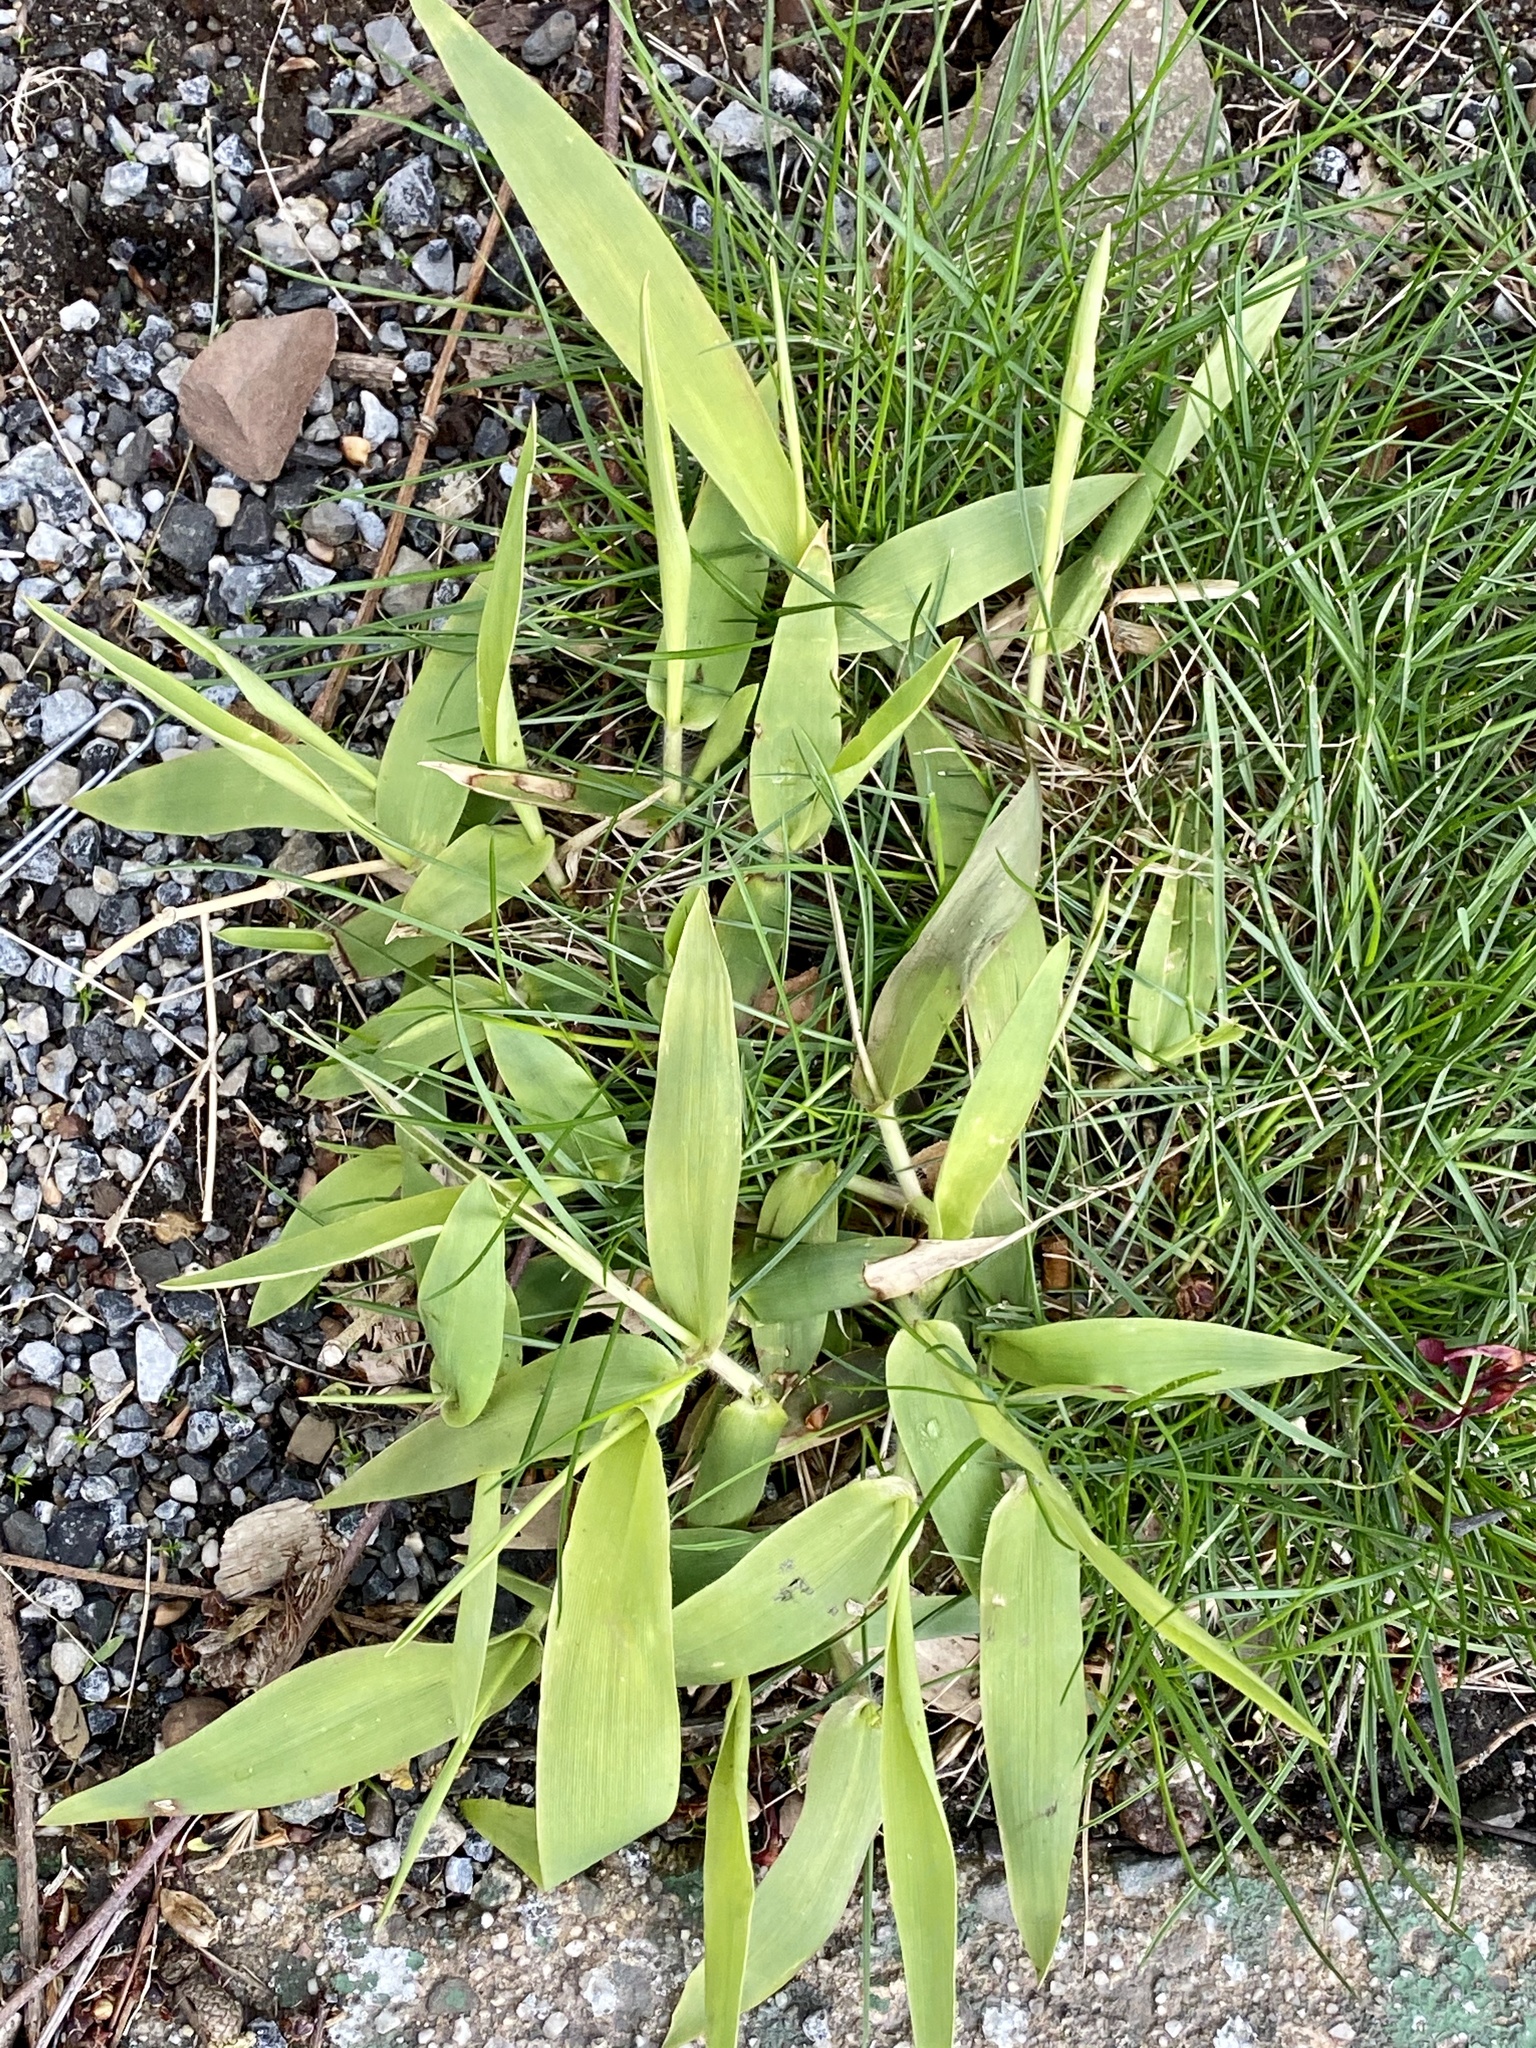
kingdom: Plantae
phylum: Tracheophyta
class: Liliopsida
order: Poales
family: Poaceae
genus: Dichanthelium
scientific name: Dichanthelium clandestinum
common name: Deer-tongue grass
